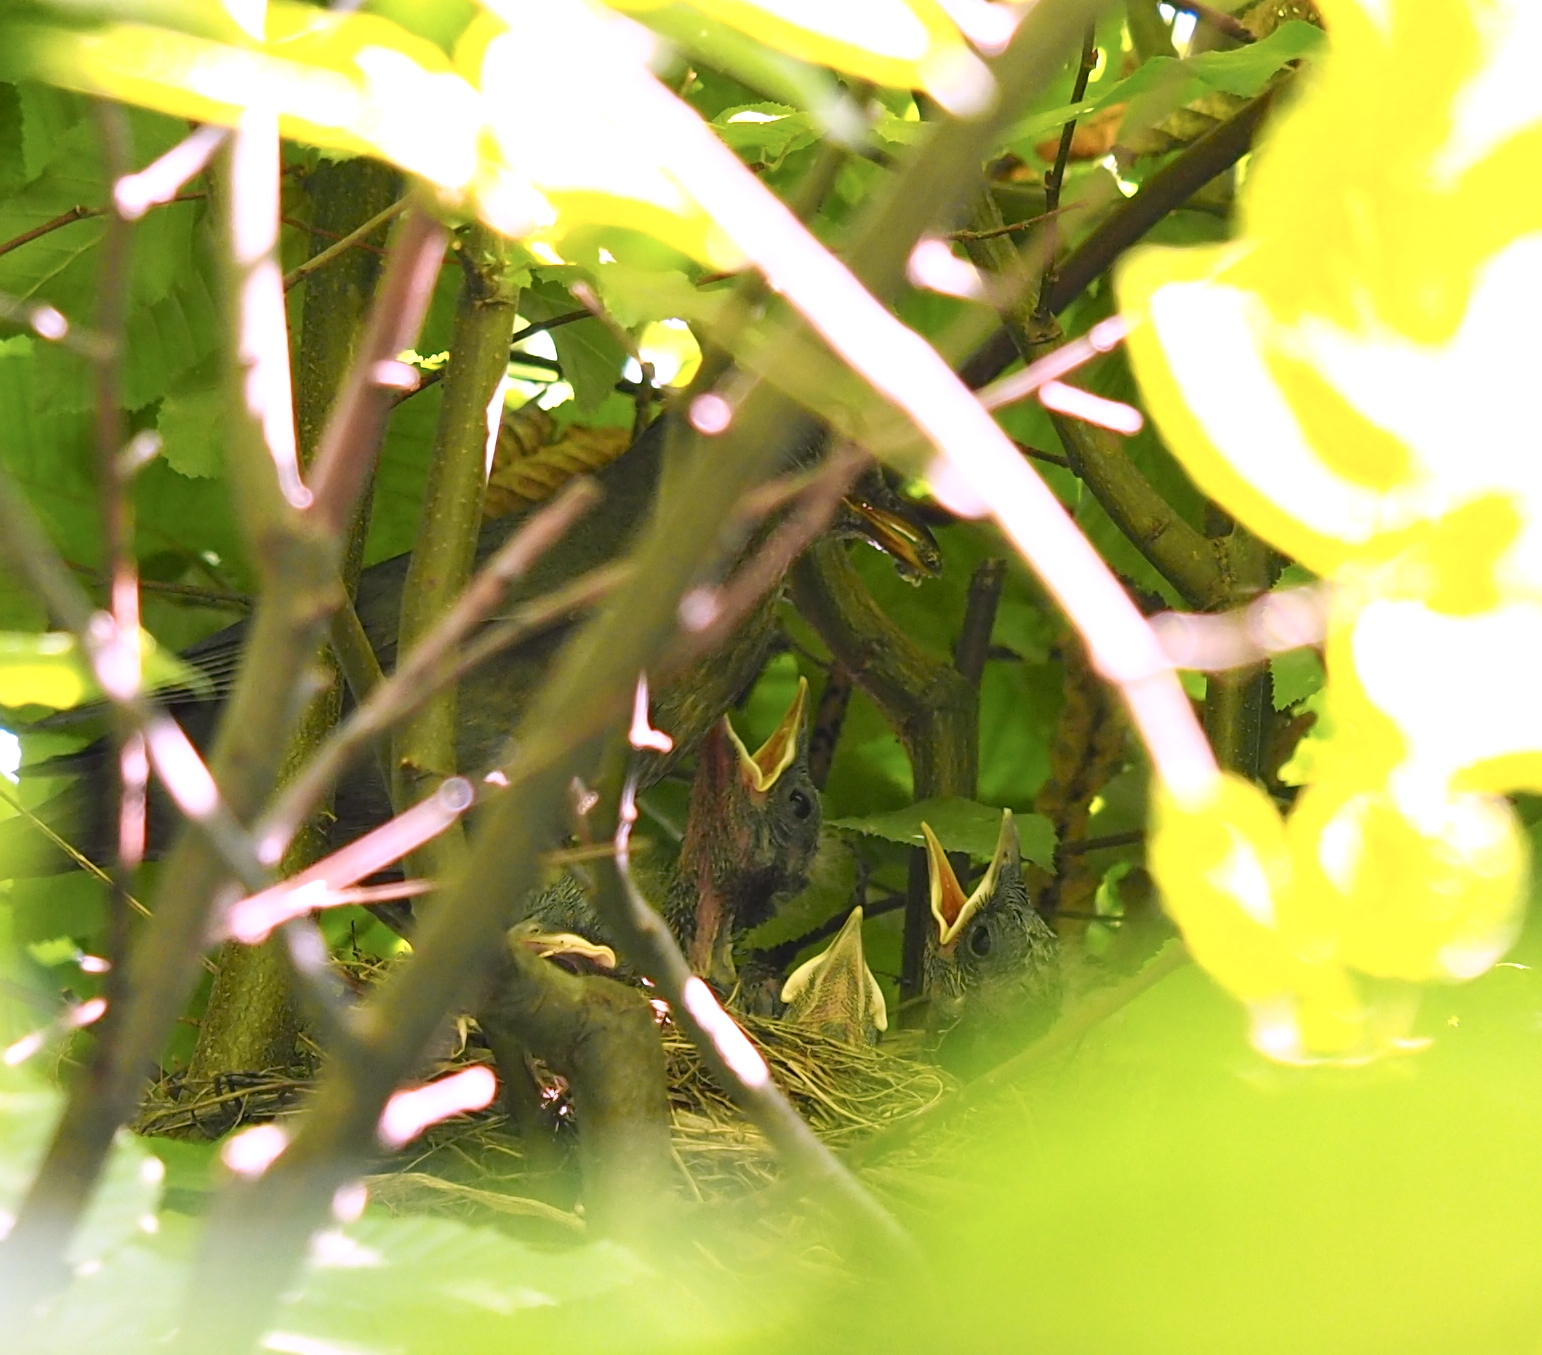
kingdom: Animalia
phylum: Chordata
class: Aves
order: Passeriformes
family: Turdidae
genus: Turdus
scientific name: Turdus merula
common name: Common blackbird
